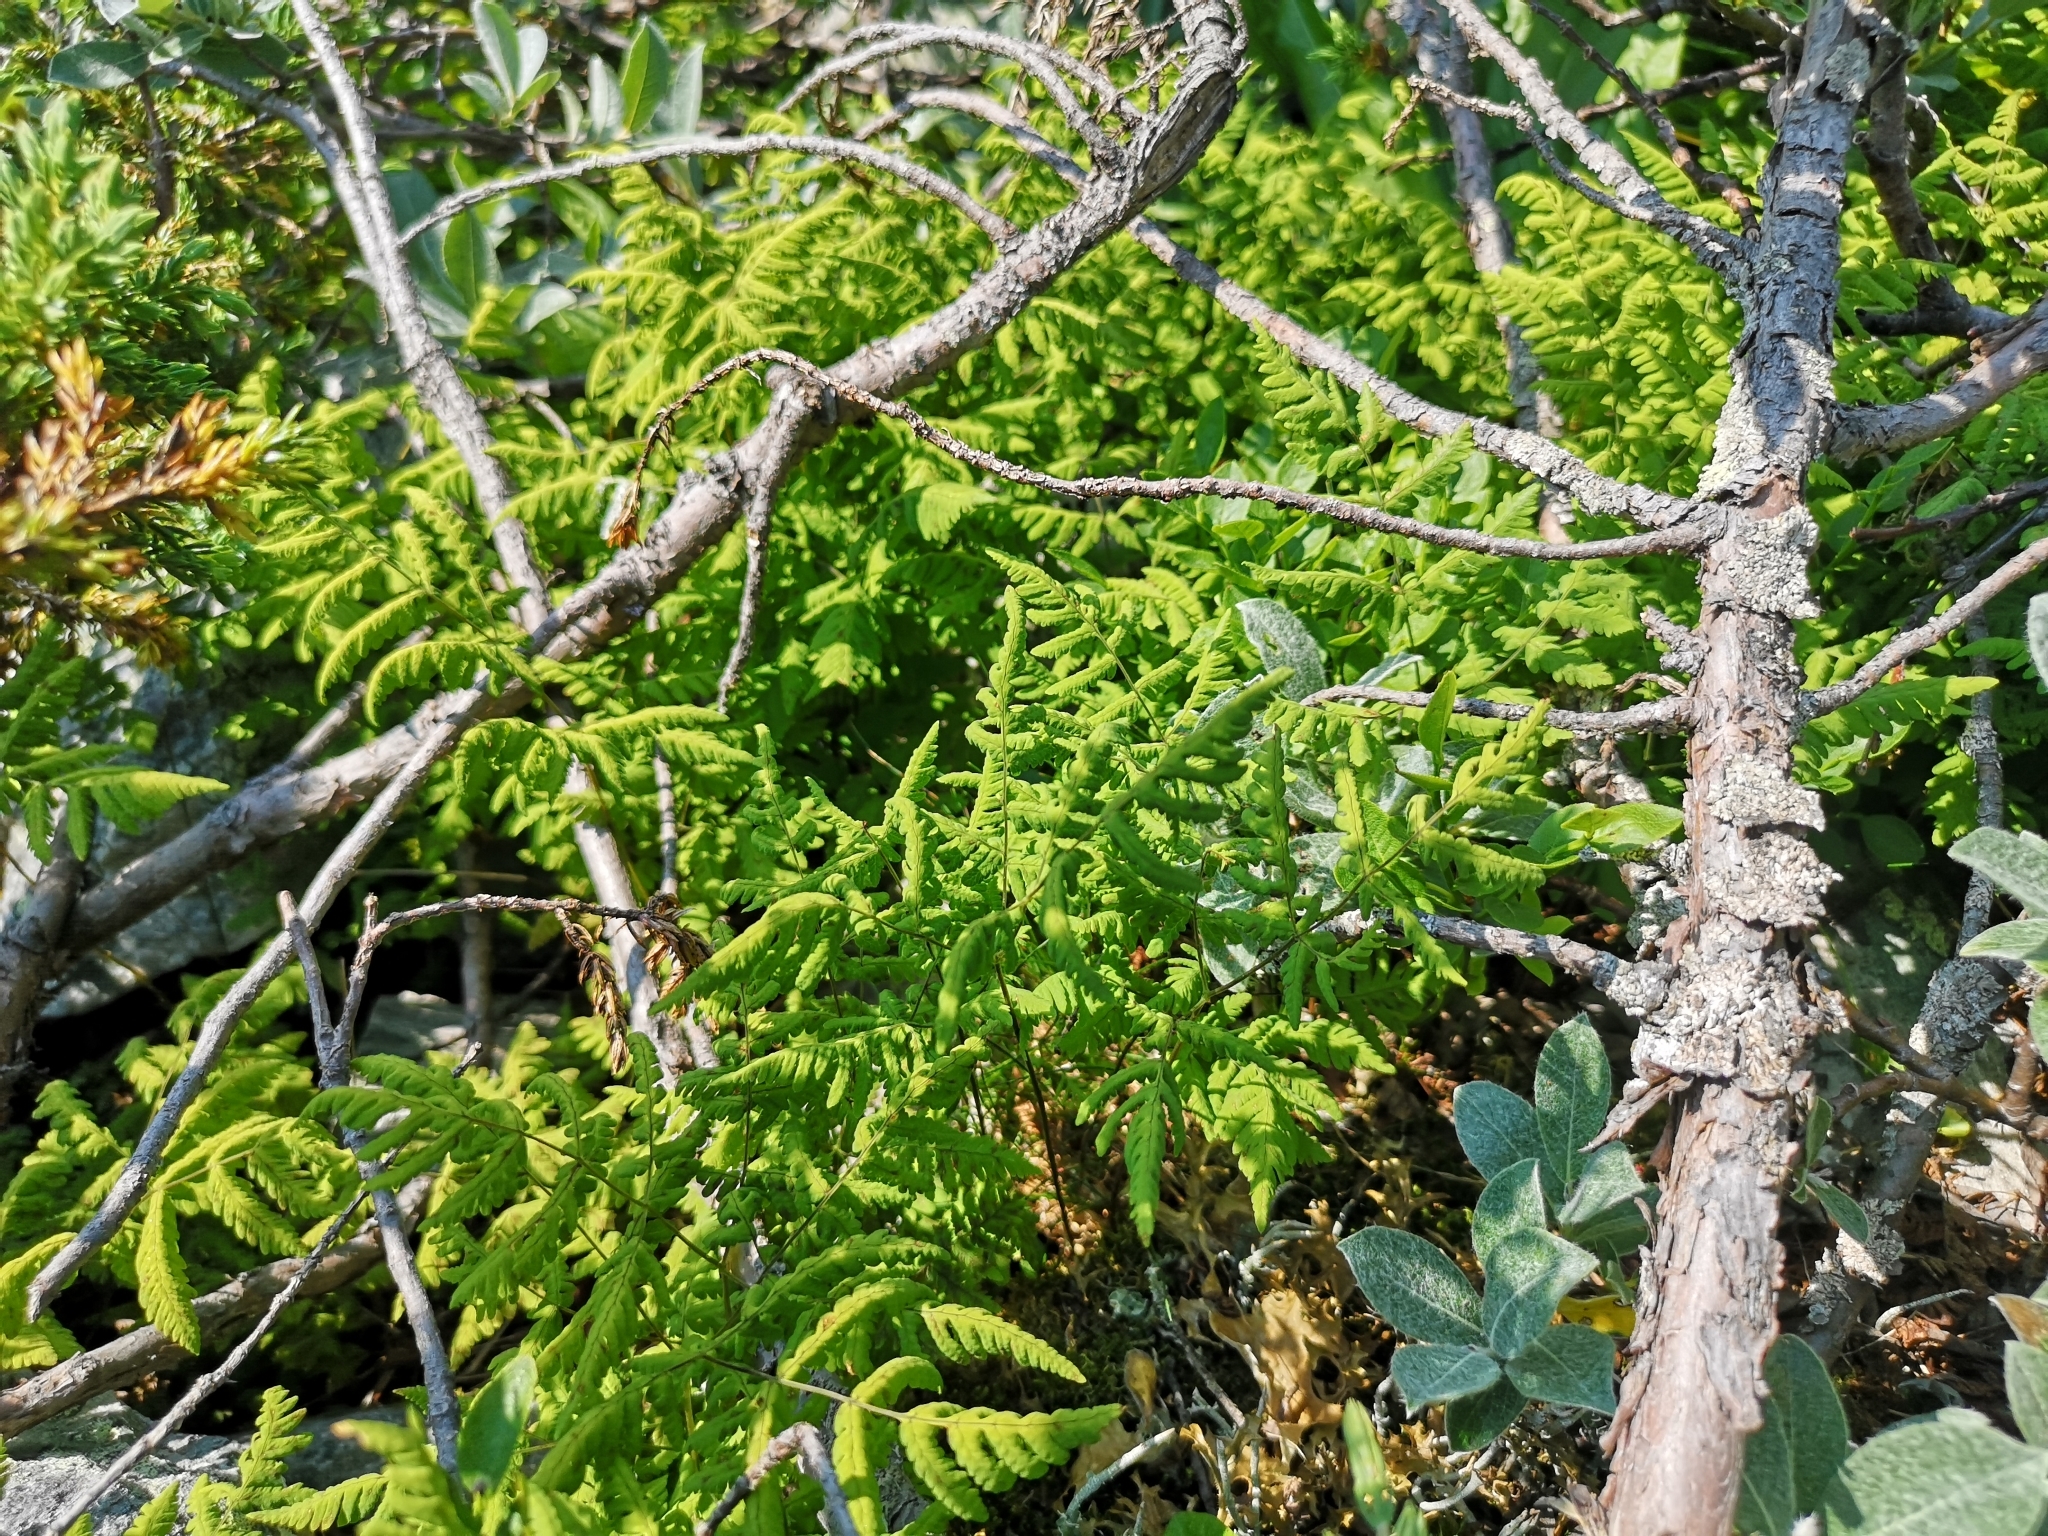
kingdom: Plantae
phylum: Tracheophyta
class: Polypodiopsida
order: Polypodiales
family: Cystopteridaceae
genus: Gymnocarpium
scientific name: Gymnocarpium dryopteris
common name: Oak fern
